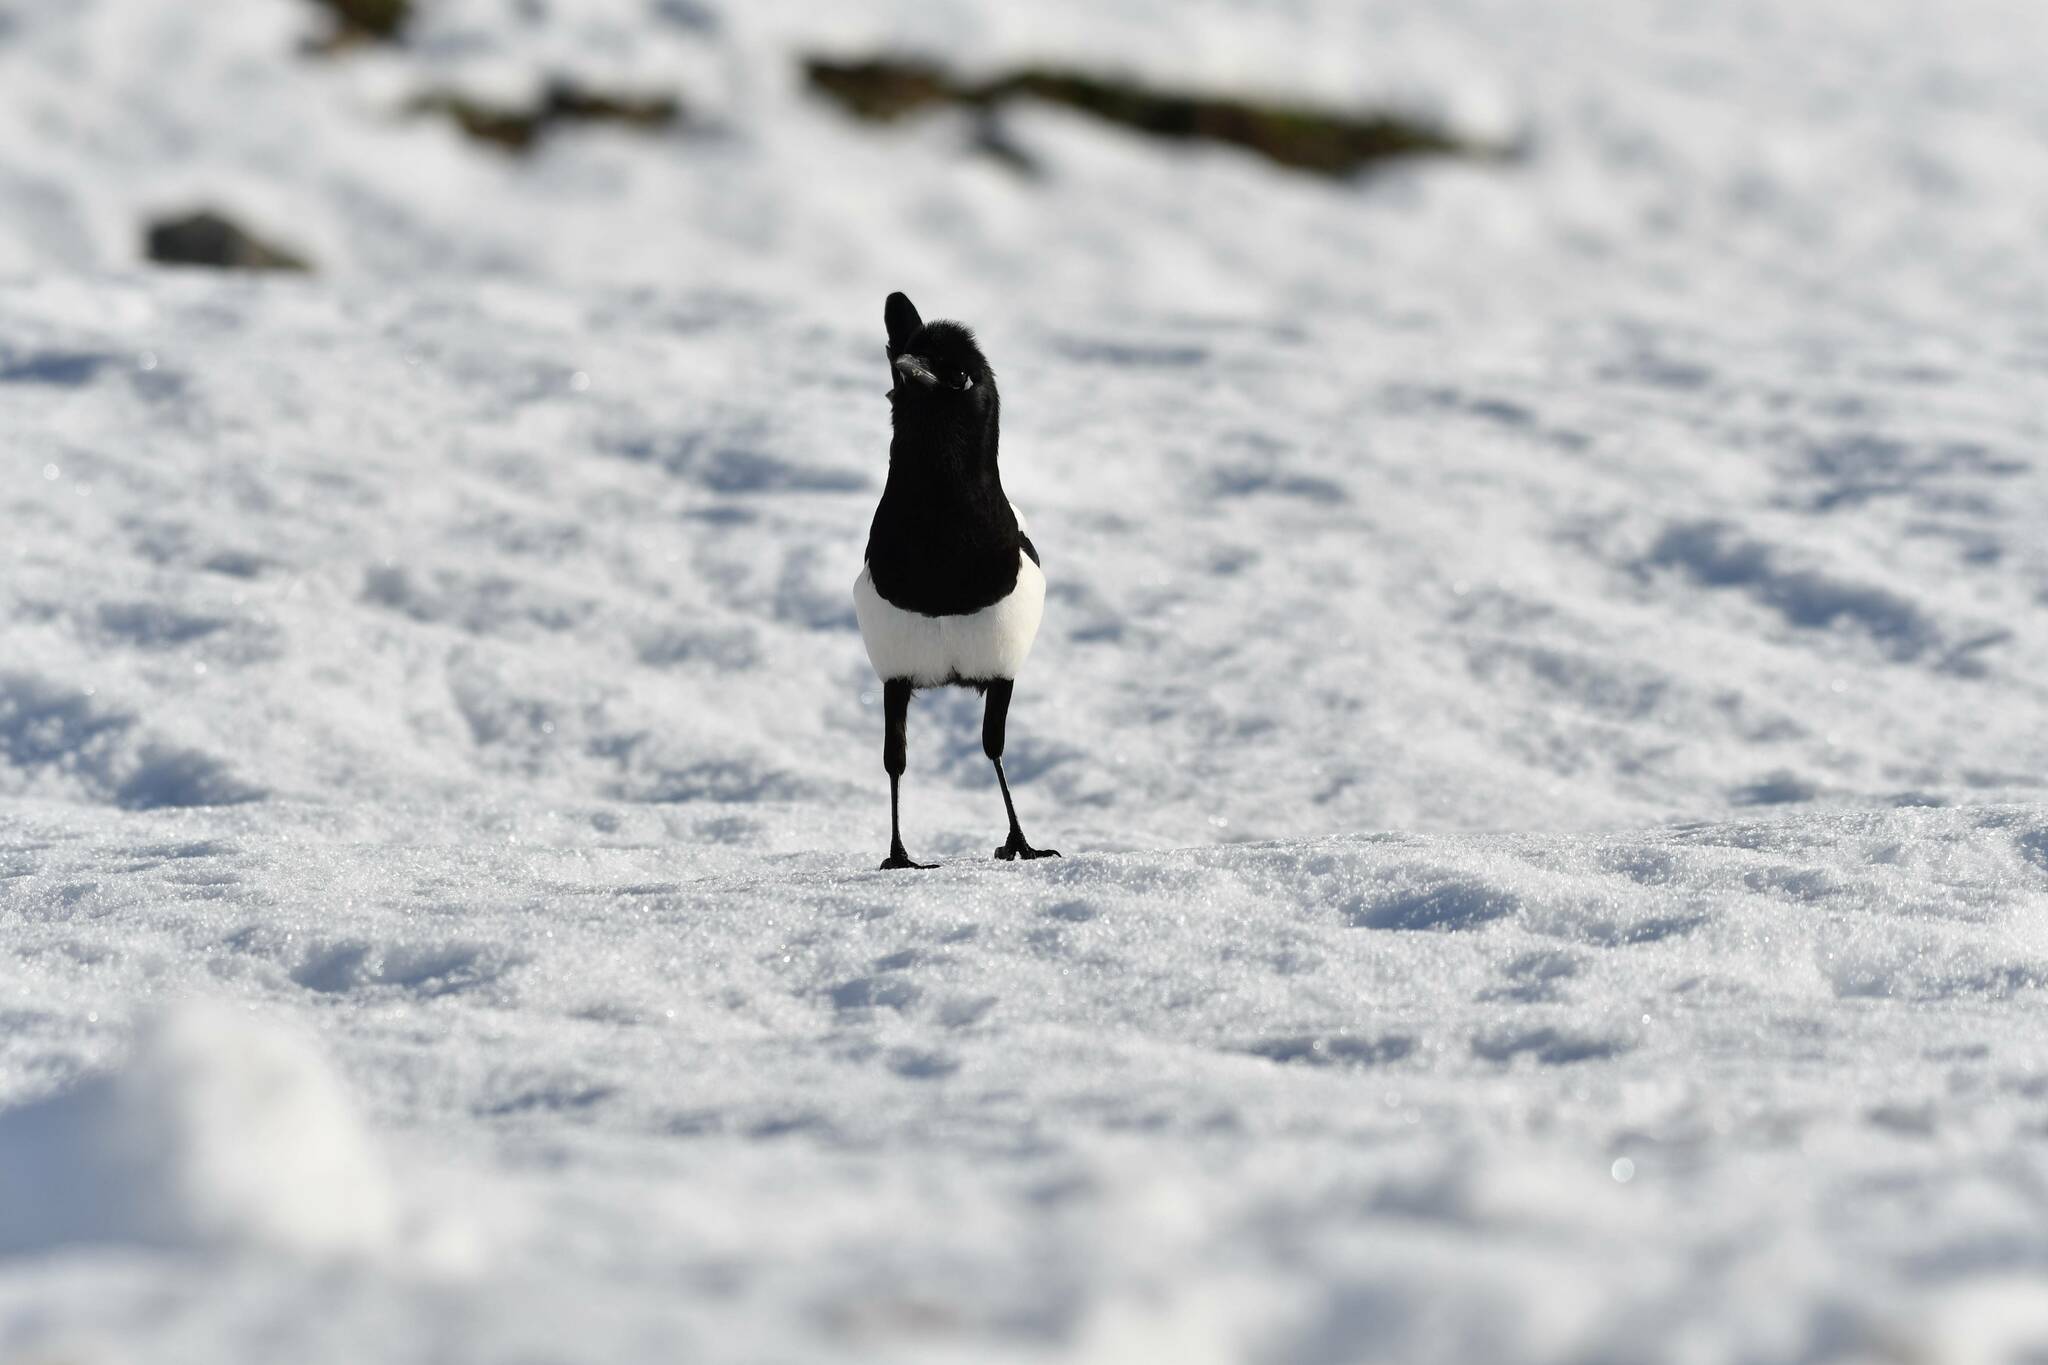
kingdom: Animalia
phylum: Chordata
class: Aves
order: Passeriformes
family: Corvidae
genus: Pica
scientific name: Pica mauritanica
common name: Maghreb magpie
